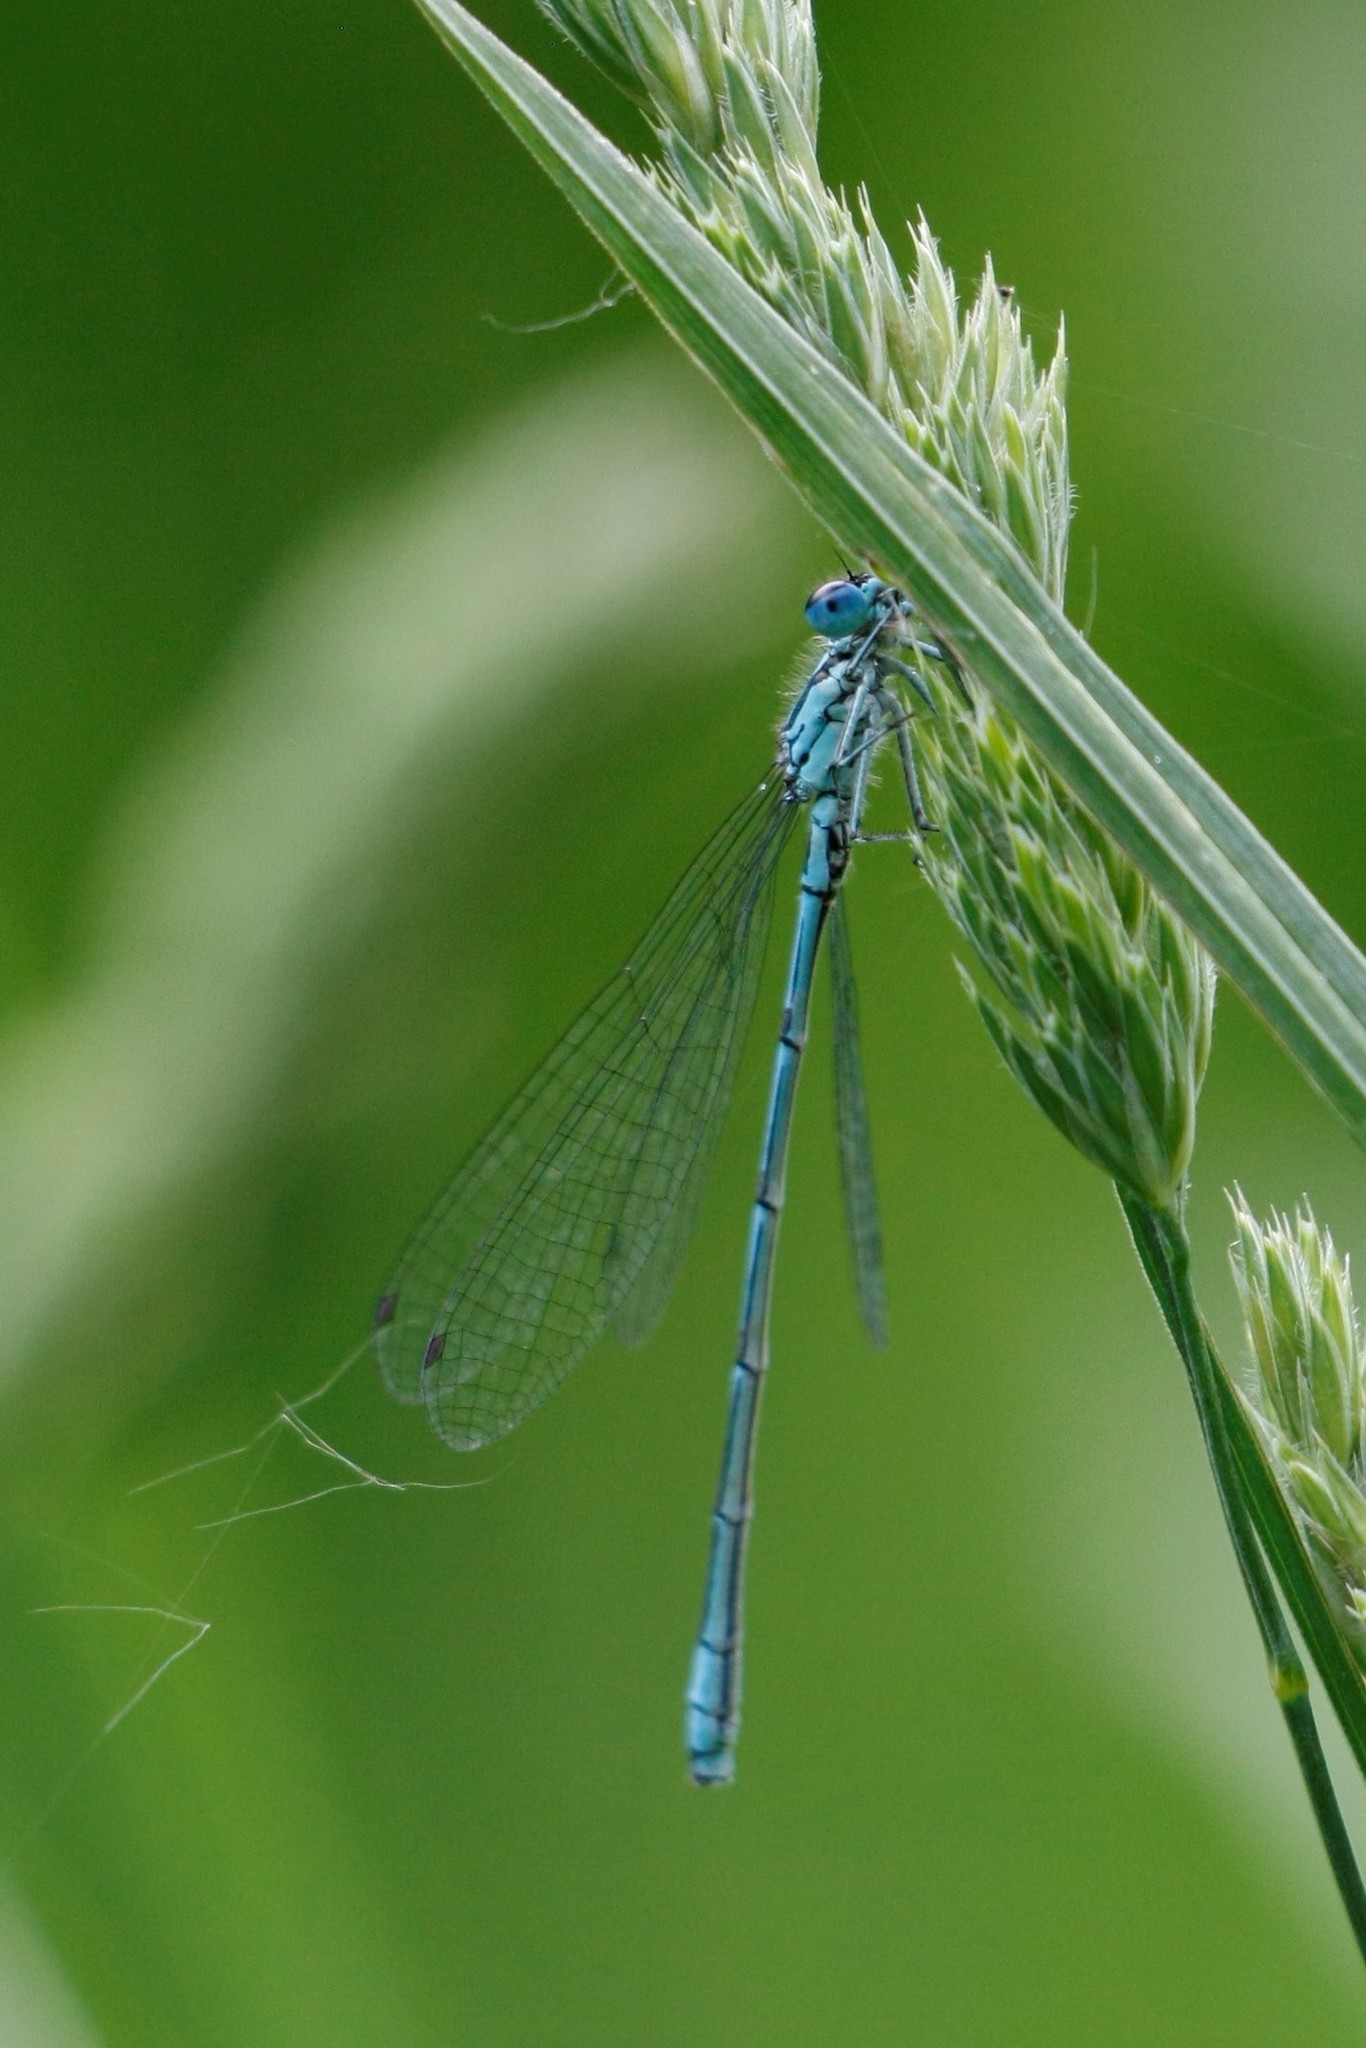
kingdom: Animalia
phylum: Arthropoda
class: Insecta
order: Odonata
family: Coenagrionidae
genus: Coenagrion
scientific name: Coenagrion puella
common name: Azure damselfly
